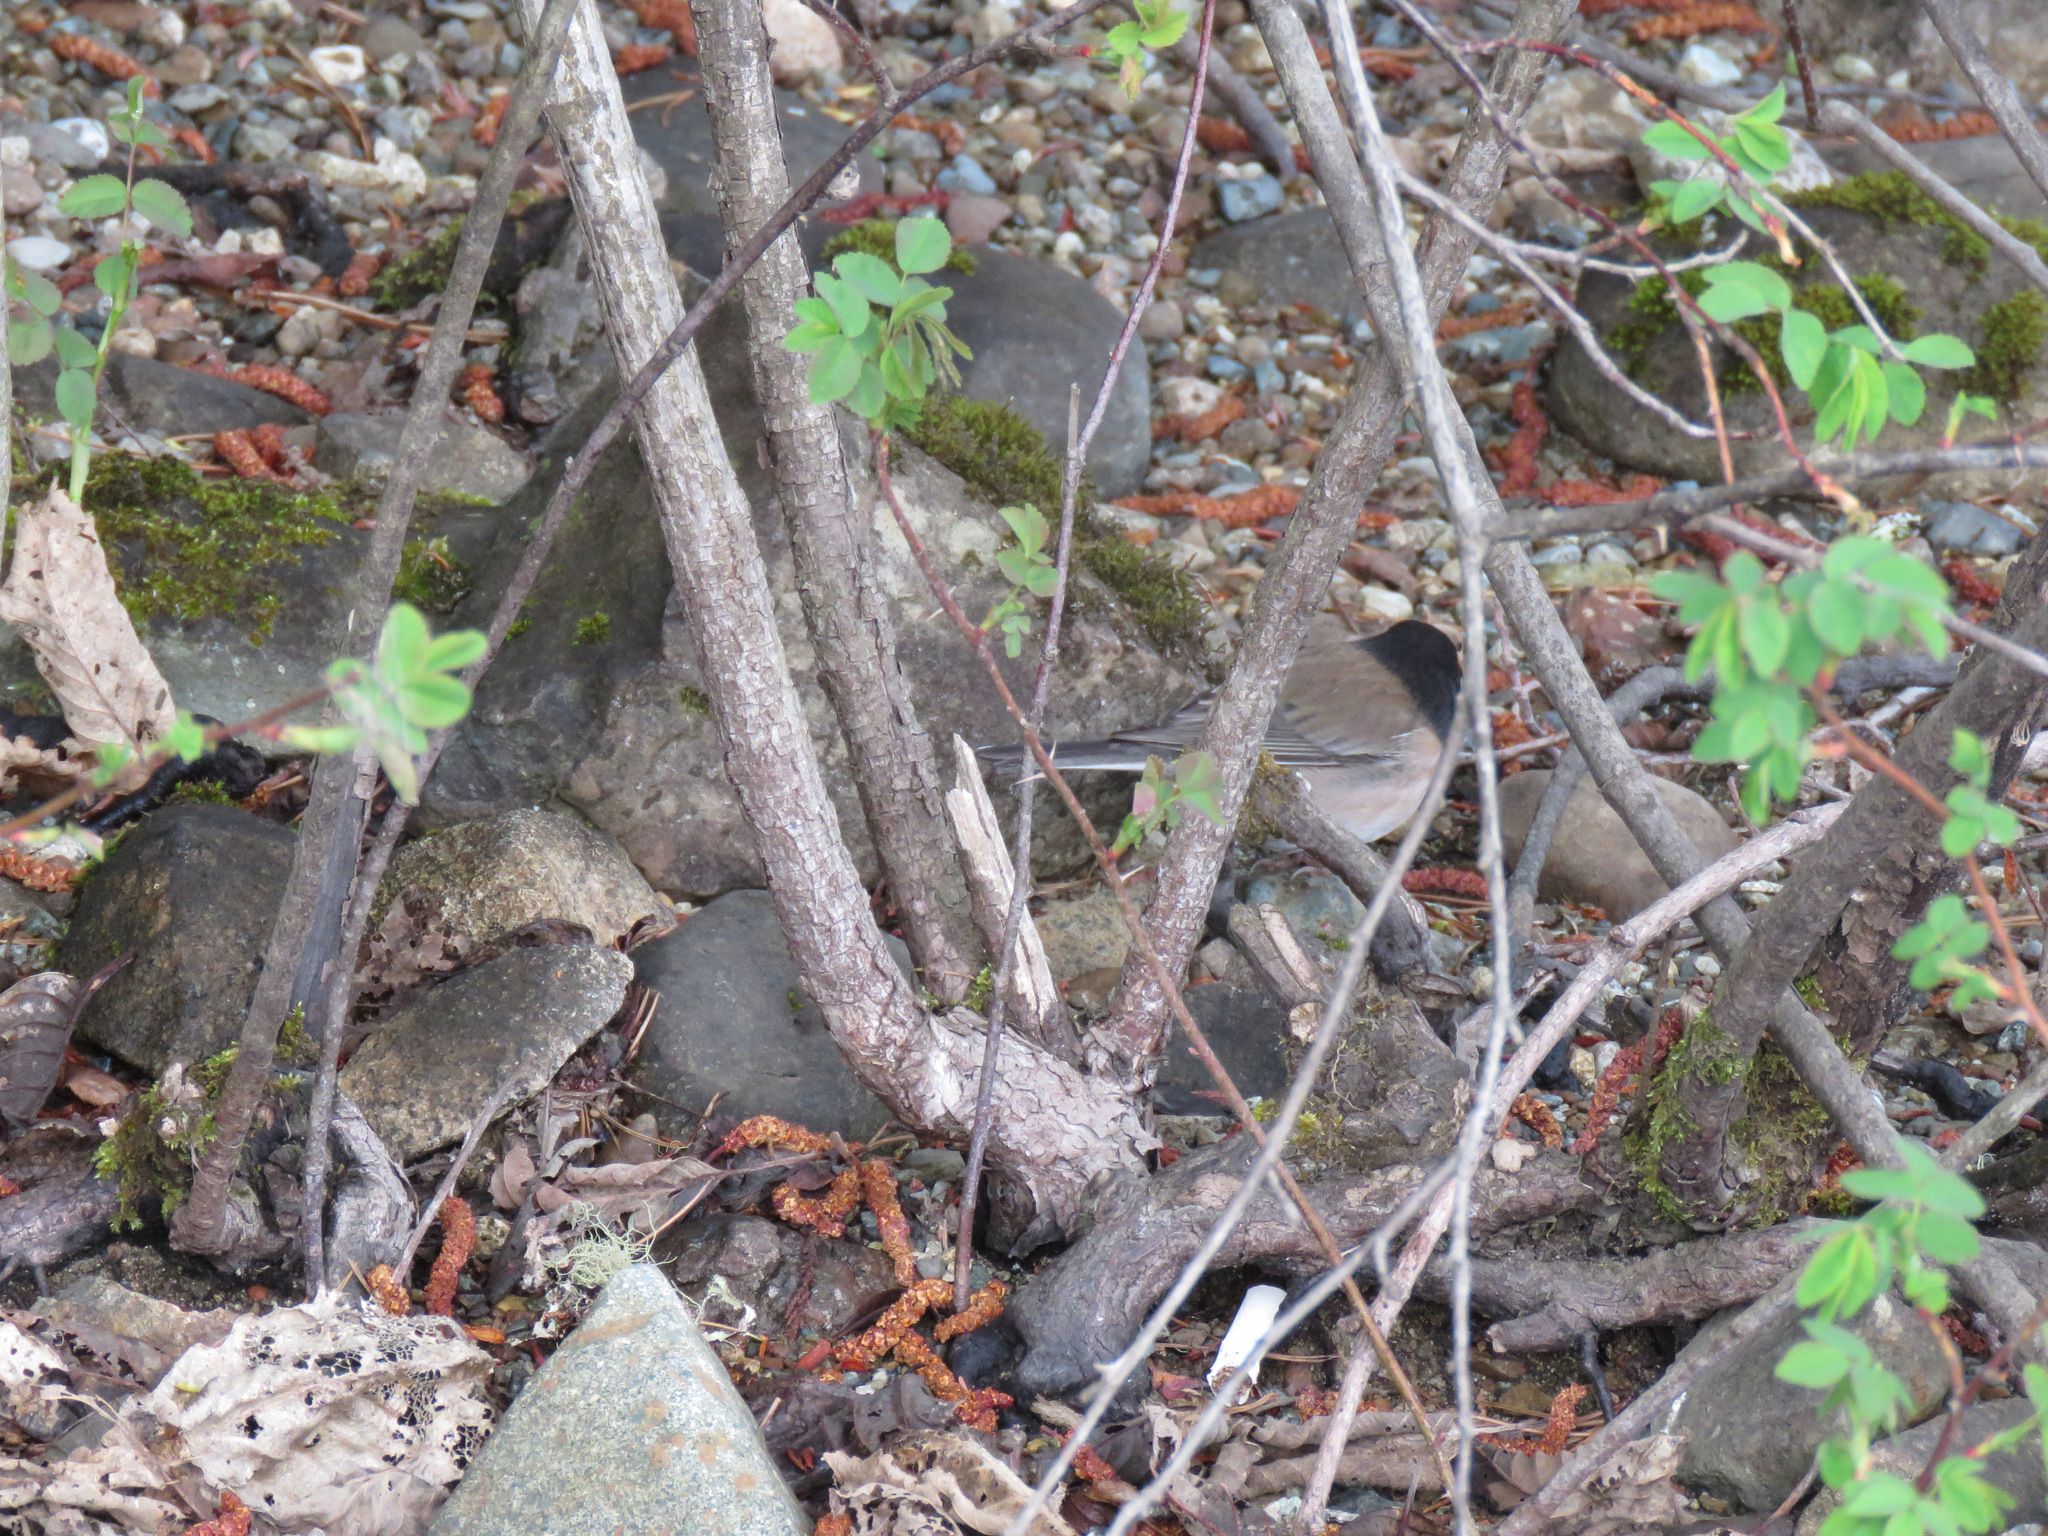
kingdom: Animalia
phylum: Chordata
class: Aves
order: Passeriformes
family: Passerellidae
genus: Junco
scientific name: Junco hyemalis
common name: Dark-eyed junco
